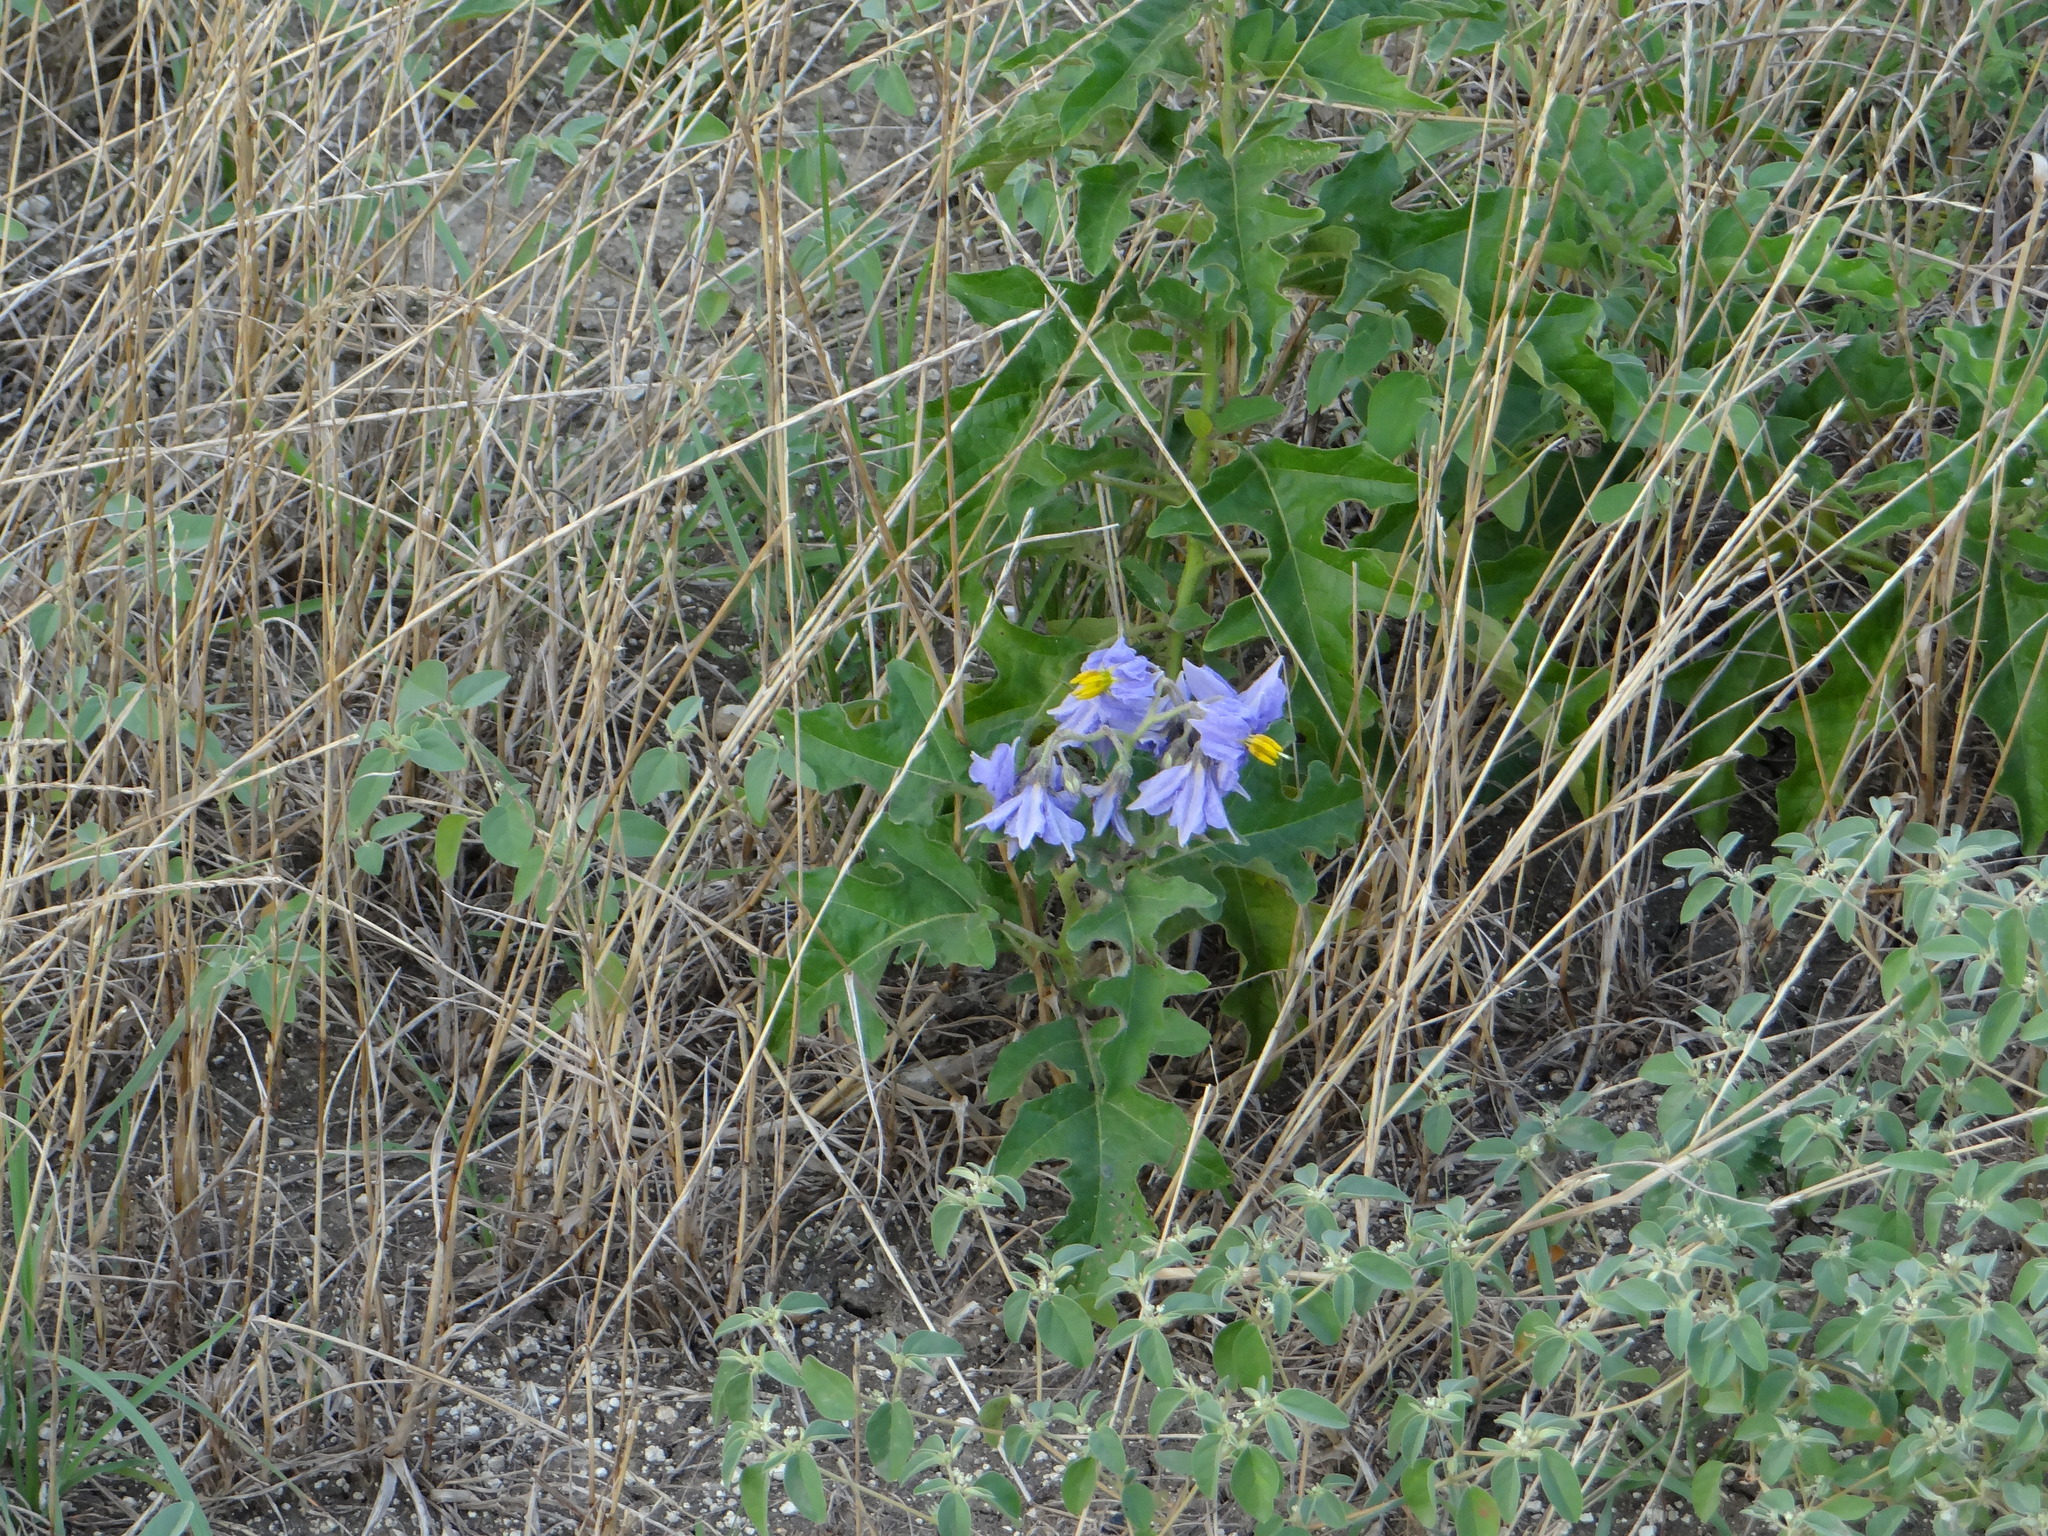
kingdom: Plantae
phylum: Tracheophyta
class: Magnoliopsida
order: Solanales
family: Solanaceae
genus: Solanum
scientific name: Solanum dimidiatum
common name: Carolina horse-nettle
